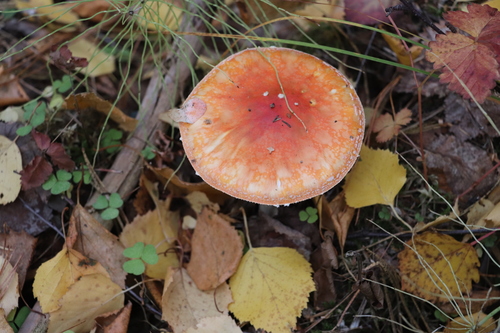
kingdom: Fungi
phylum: Basidiomycota
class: Agaricomycetes
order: Agaricales
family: Amanitaceae
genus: Amanita
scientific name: Amanita muscaria
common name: Fly agaric
